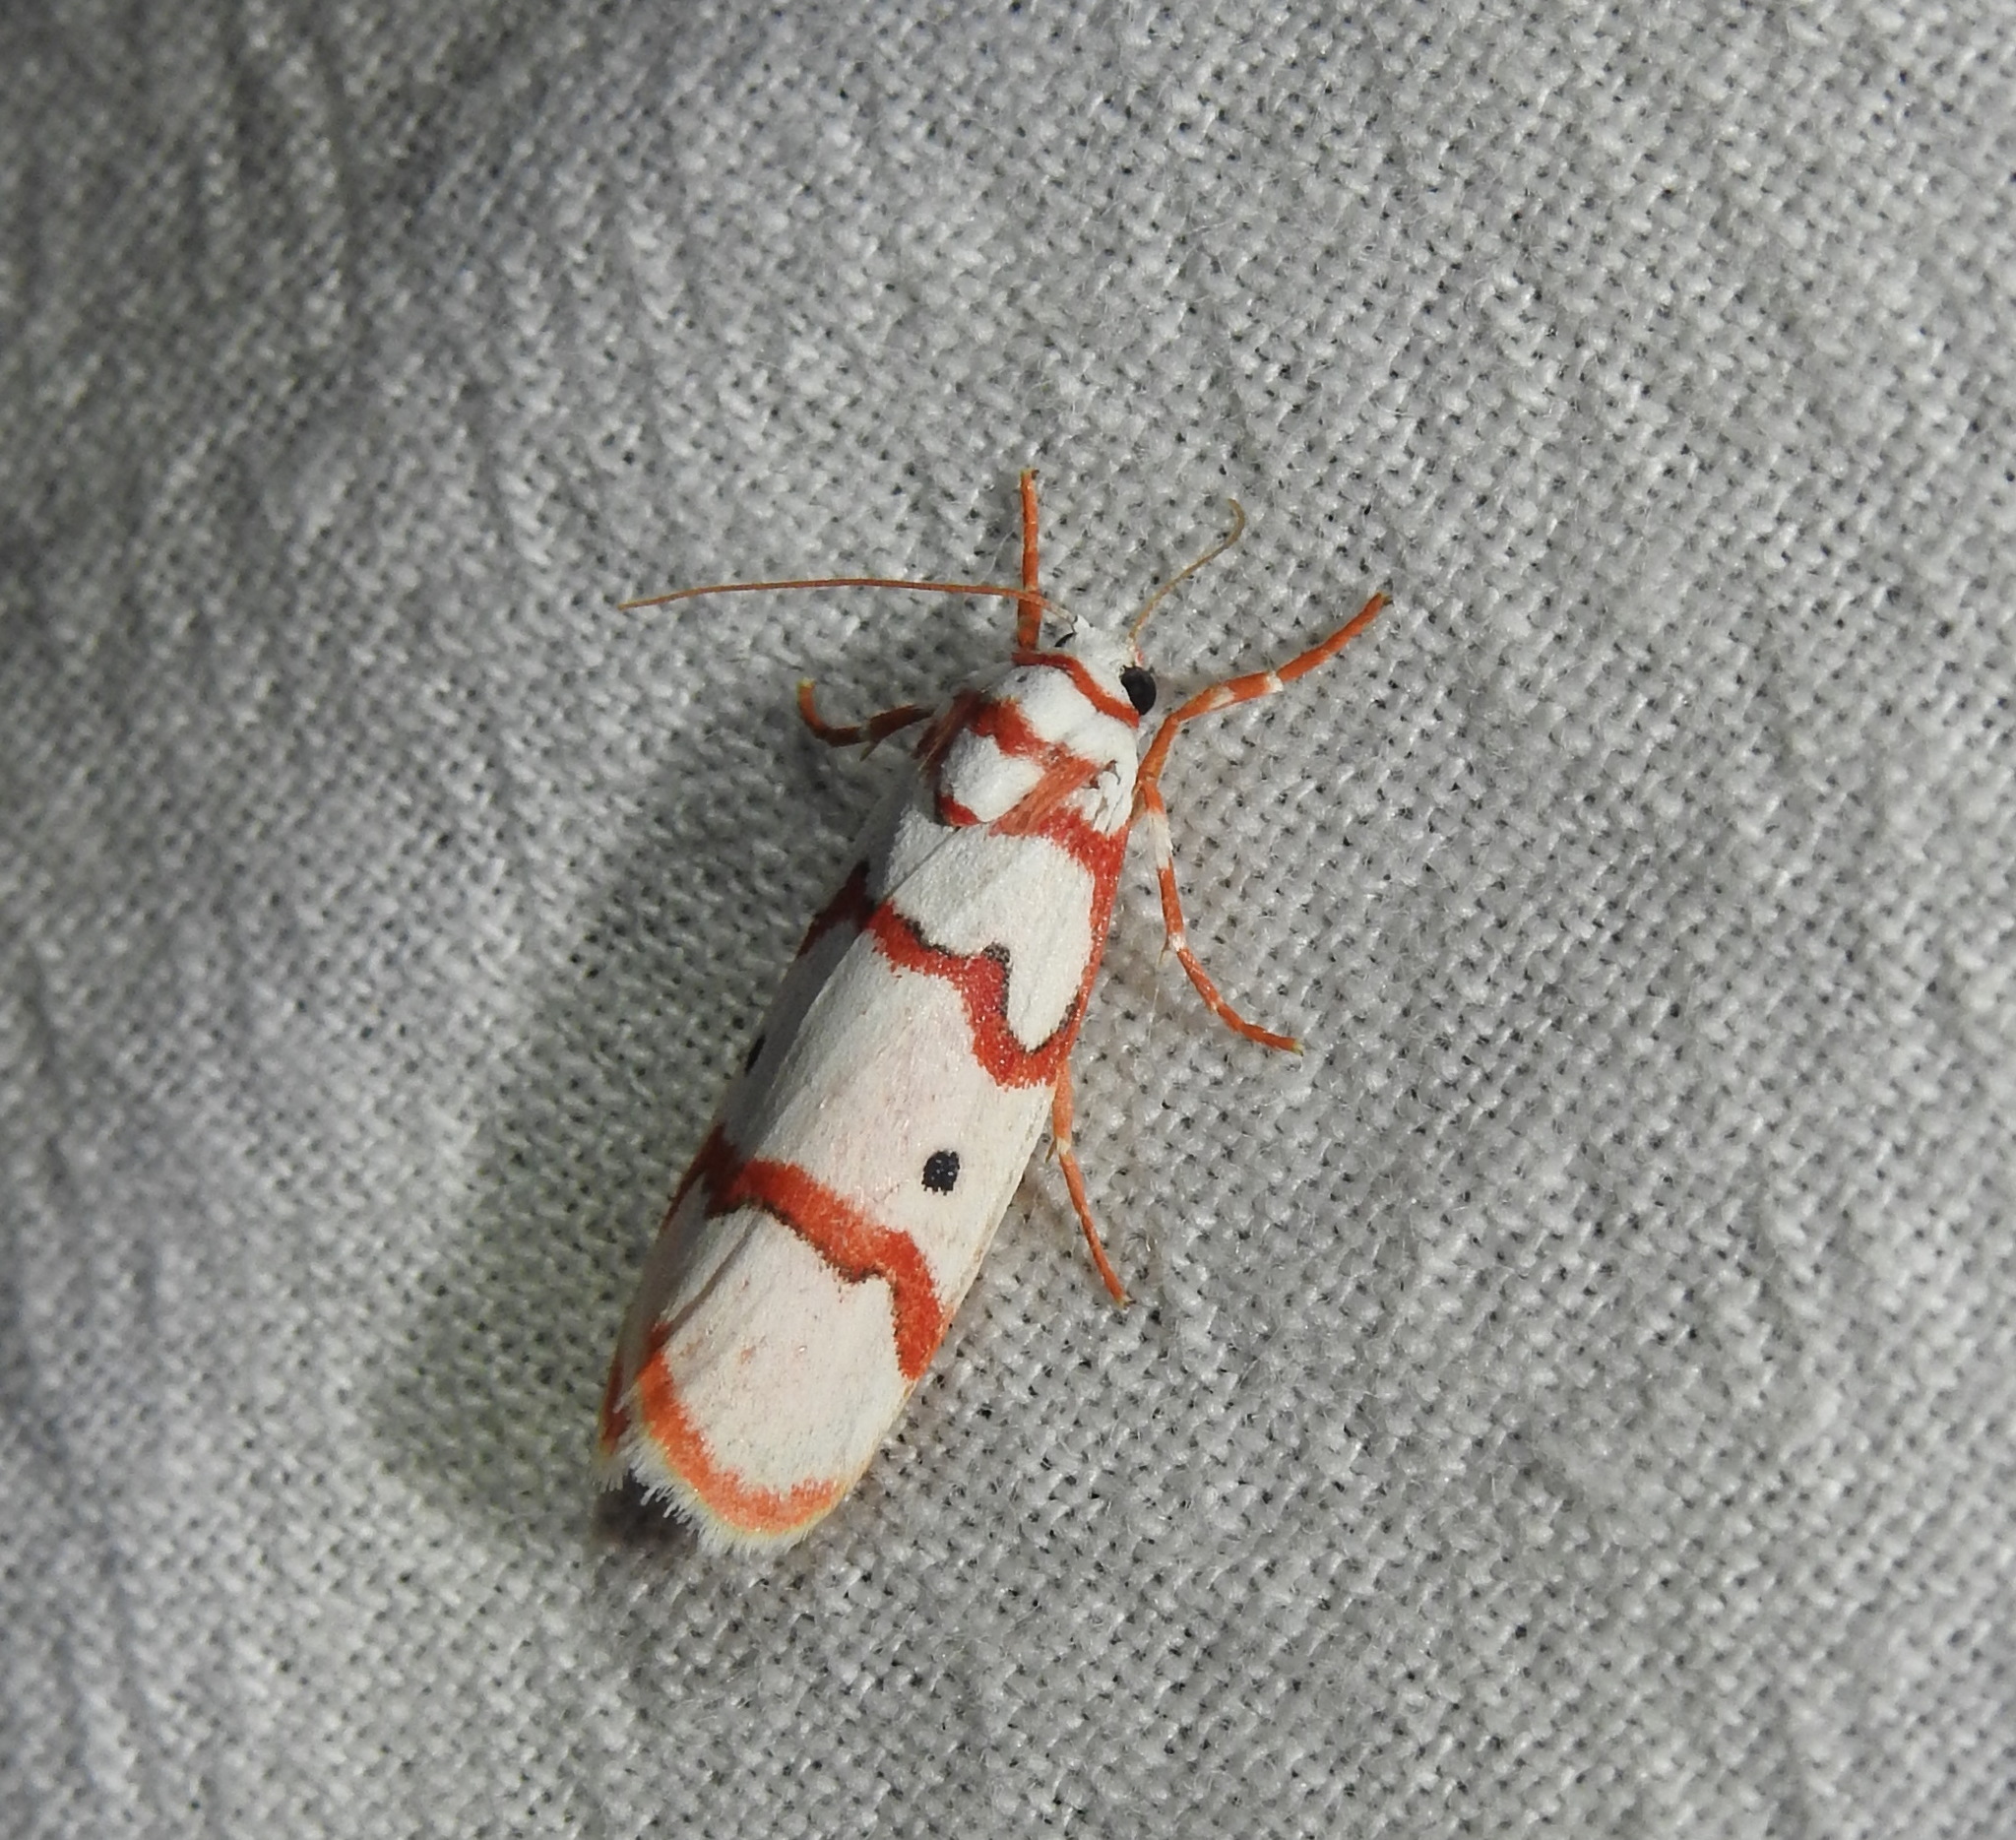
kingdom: Animalia
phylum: Arthropoda
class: Insecta
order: Lepidoptera
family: Erebidae
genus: Cyana
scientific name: Cyana puella
